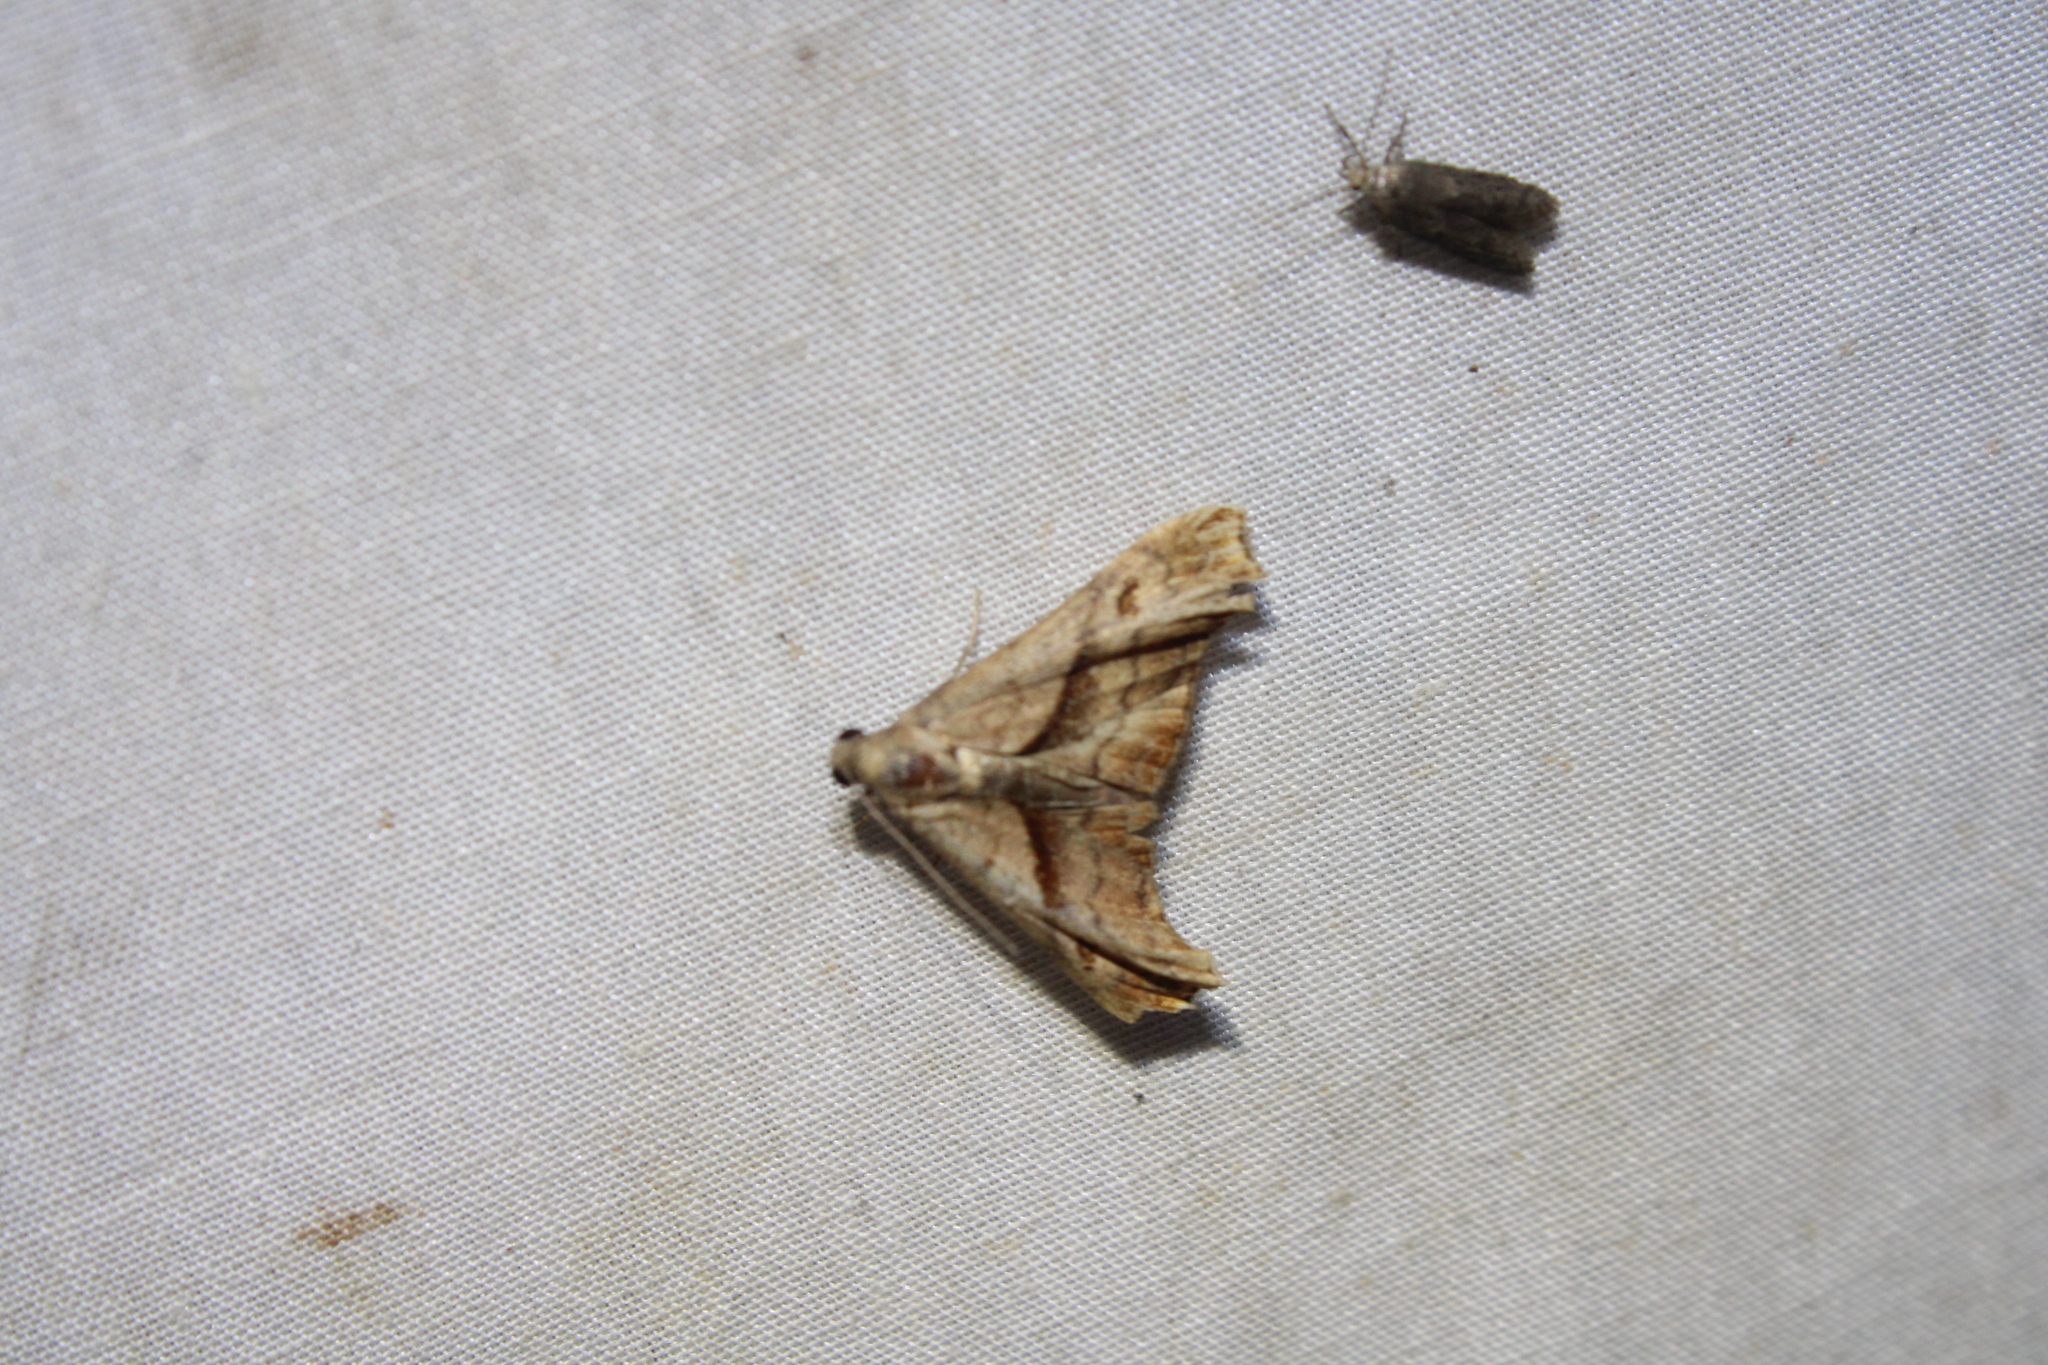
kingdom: Animalia
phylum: Arthropoda
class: Insecta
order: Lepidoptera
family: Erebidae
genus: Palthis
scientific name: Palthis angulalis
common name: Dark-spotted palthis moth
